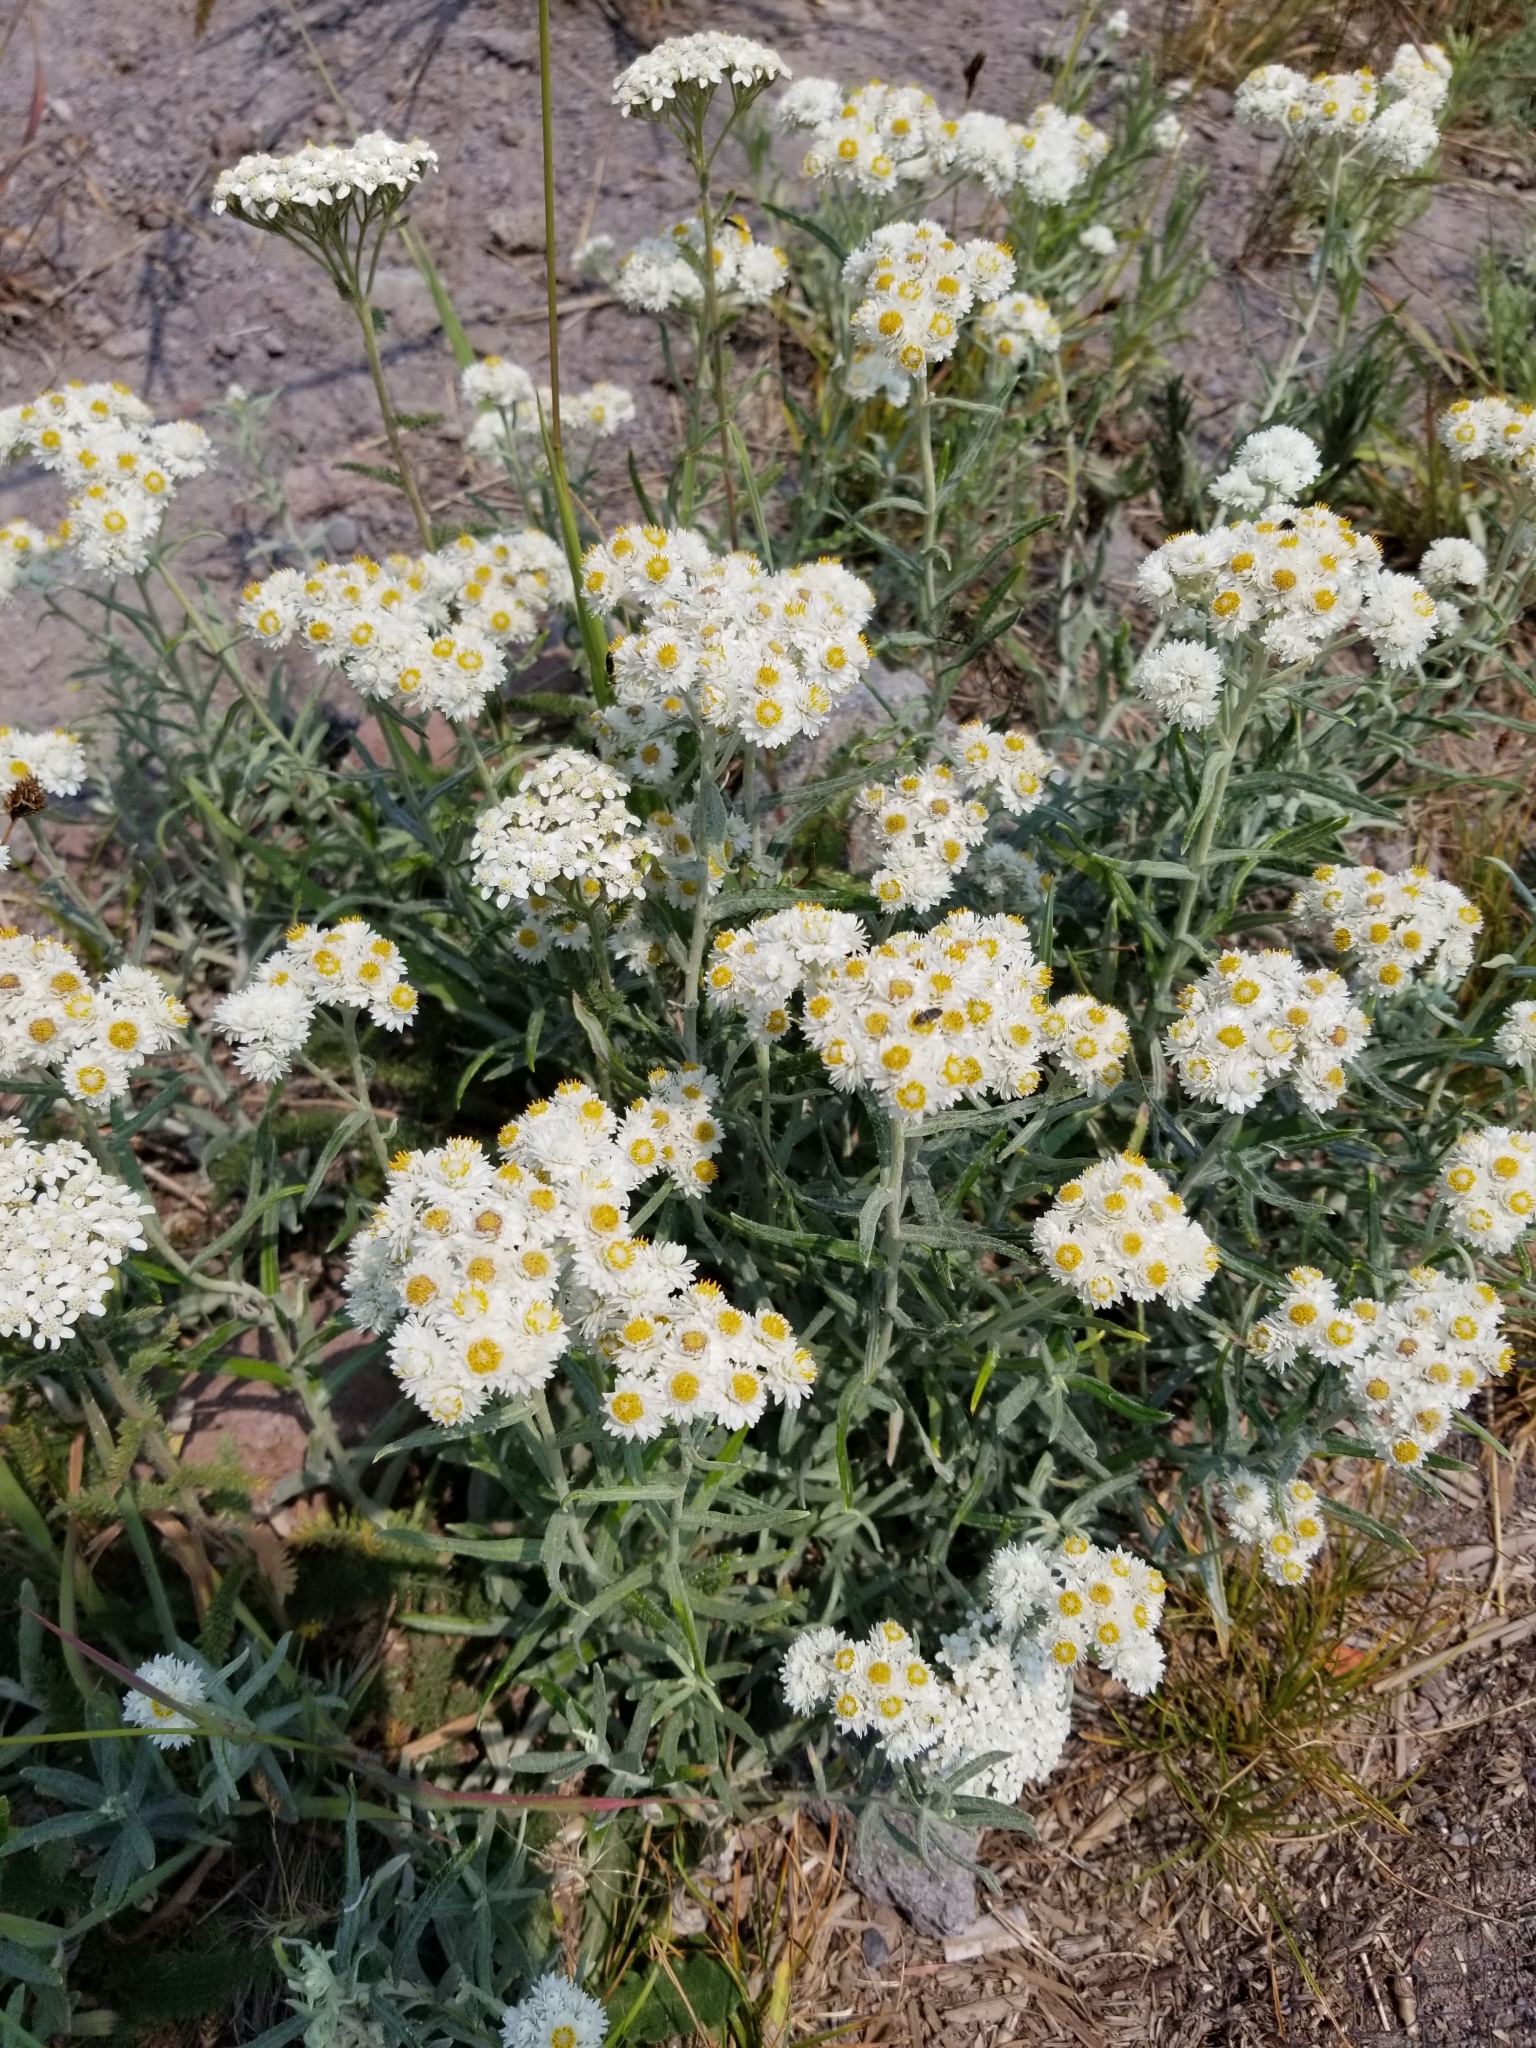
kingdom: Plantae
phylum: Tracheophyta
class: Magnoliopsida
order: Asterales
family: Asteraceae
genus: Anaphalis
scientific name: Anaphalis margaritacea
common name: Pearly everlasting
